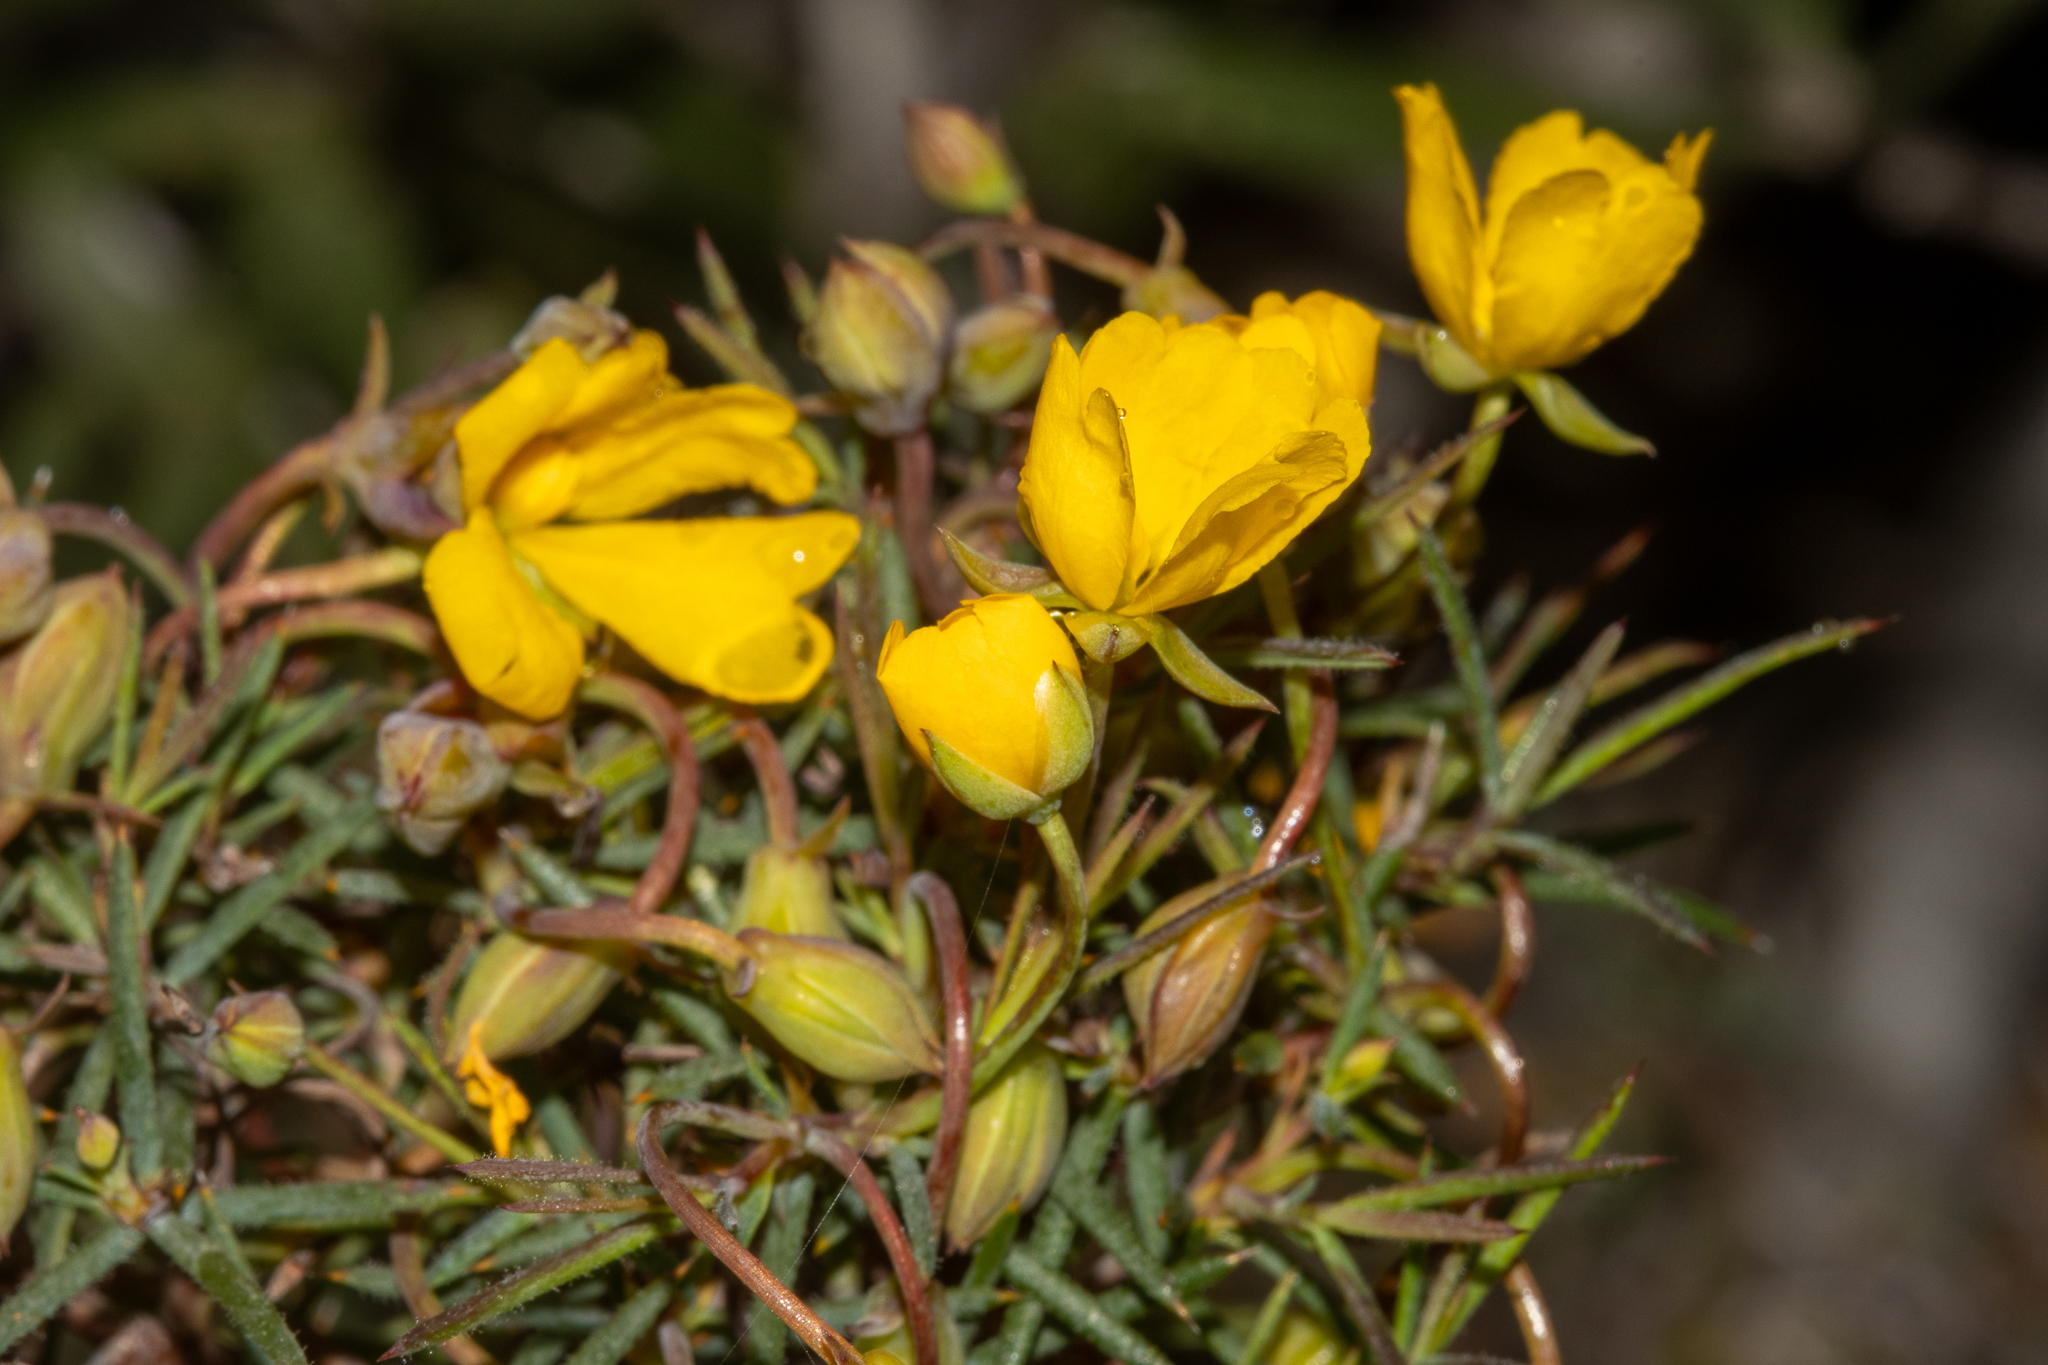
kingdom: Plantae
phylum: Tracheophyta
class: Magnoliopsida
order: Dilleniales
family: Dilleniaceae
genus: Hibbertia
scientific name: Hibbertia
